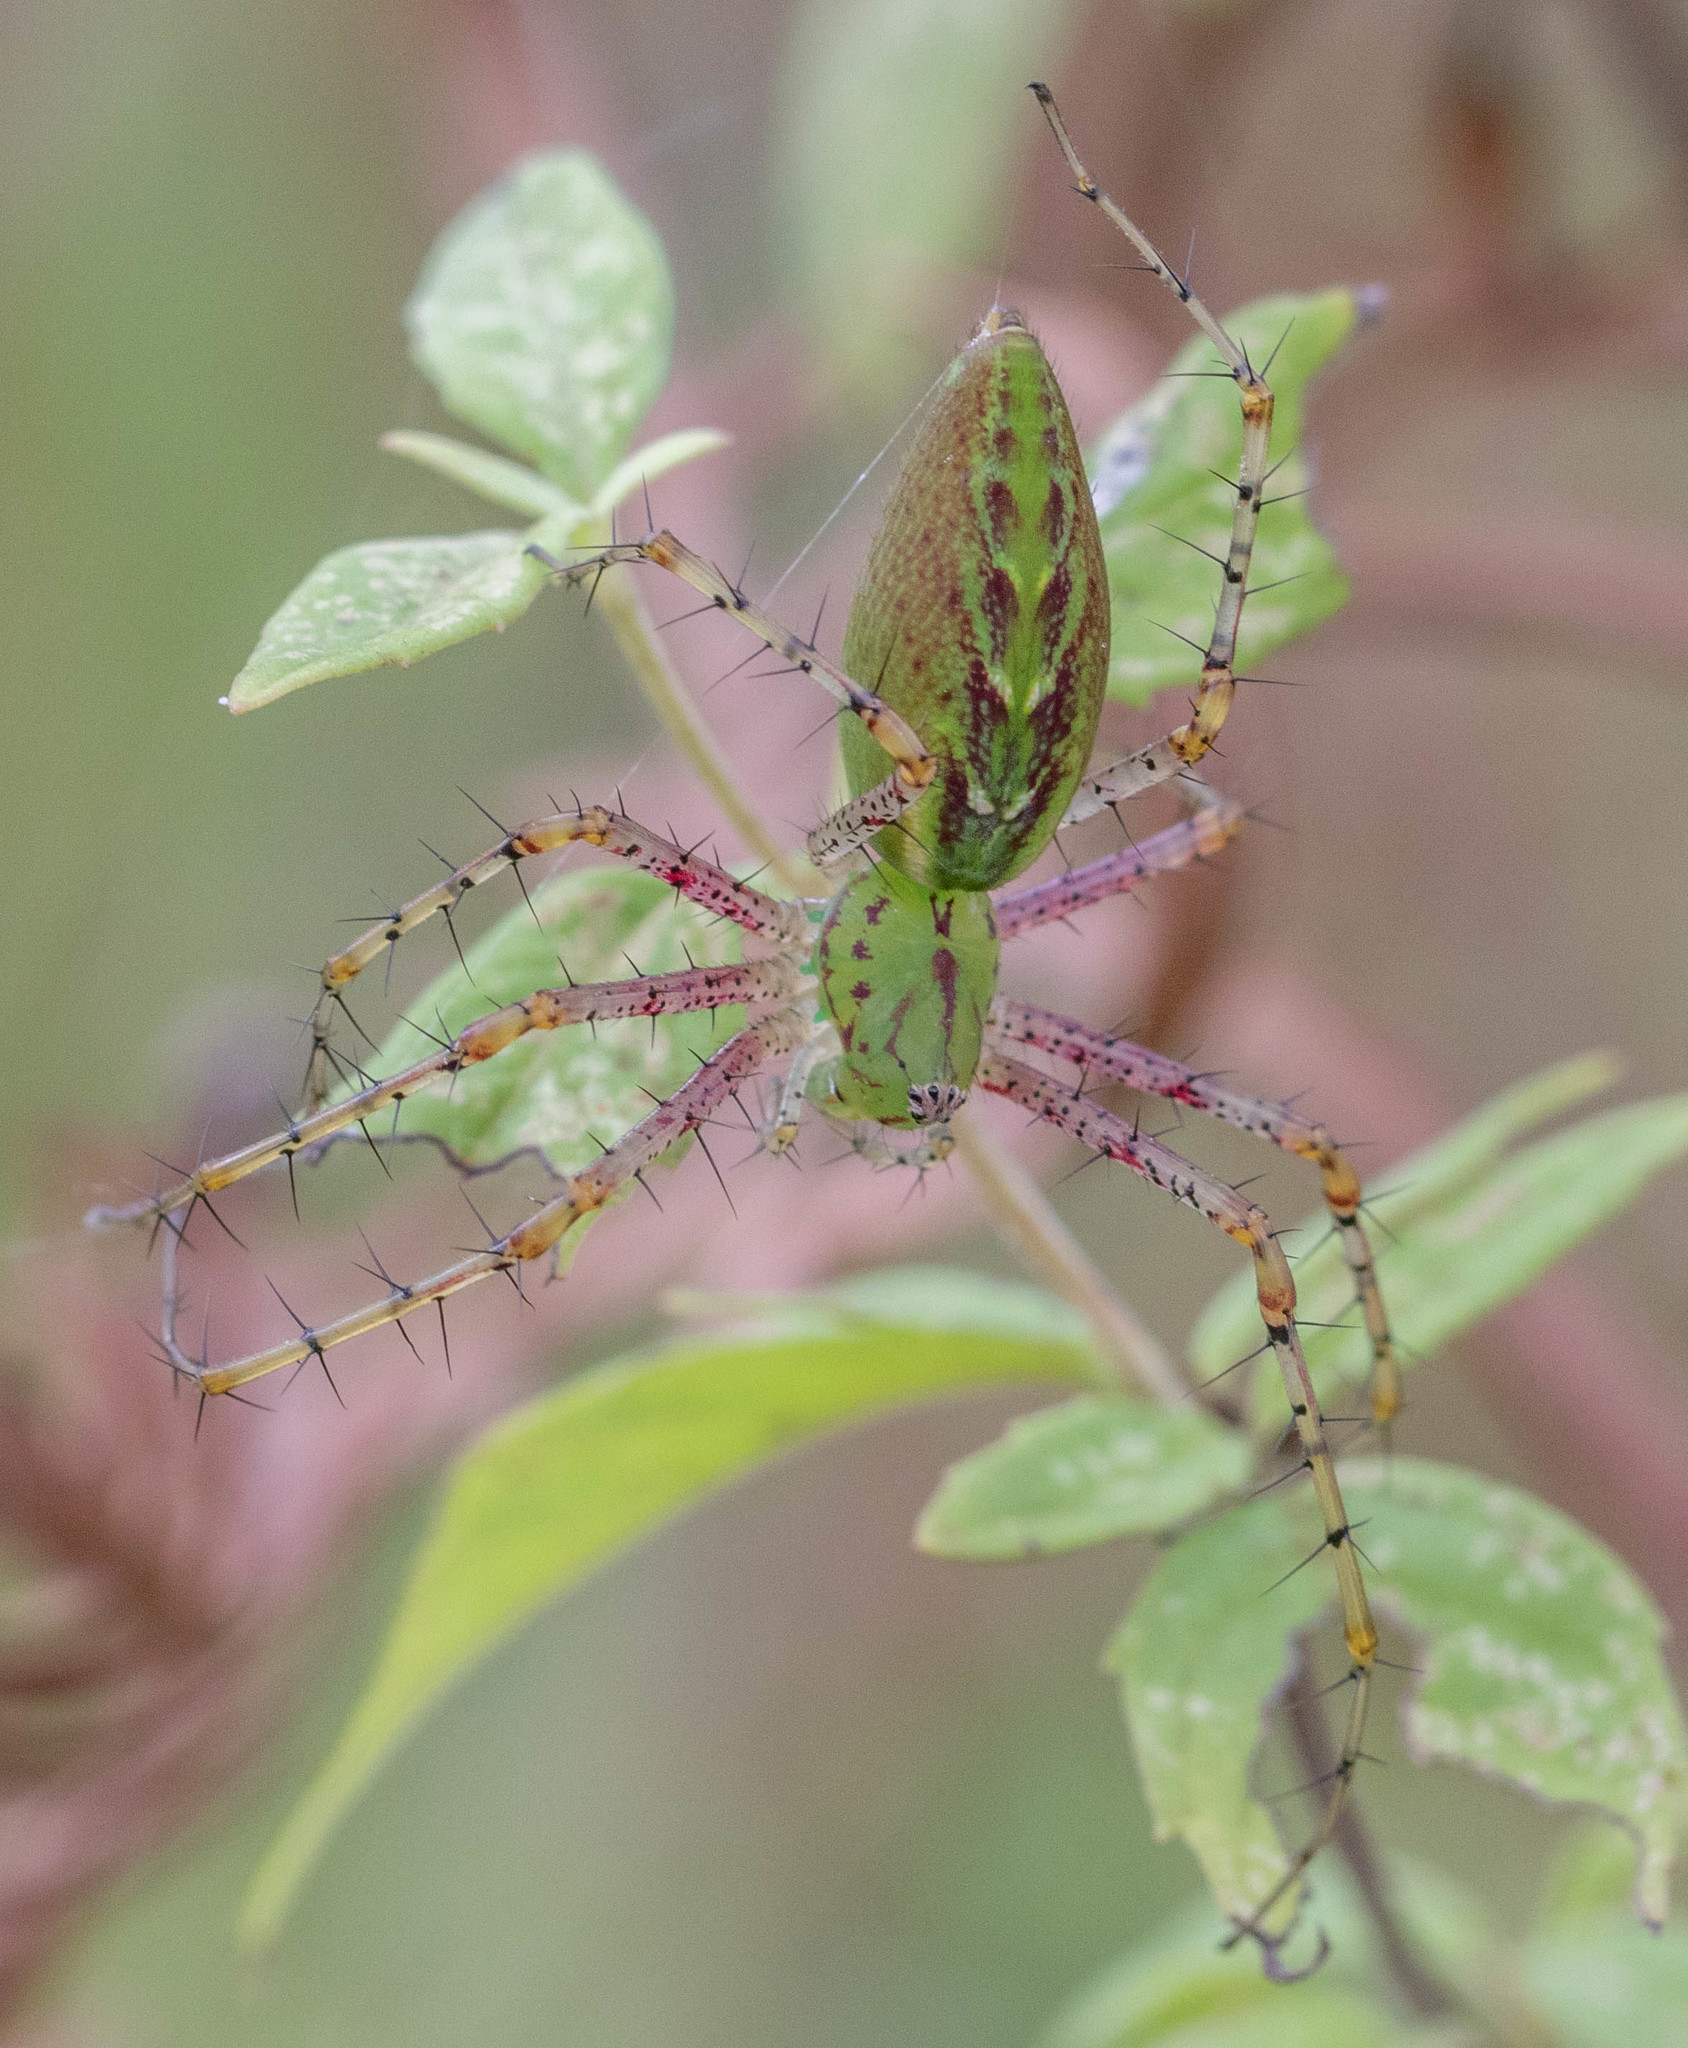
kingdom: Animalia
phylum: Arthropoda
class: Arachnida
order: Araneae
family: Oxyopidae
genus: Peucetia
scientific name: Peucetia viridans
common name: Lynx spiders
